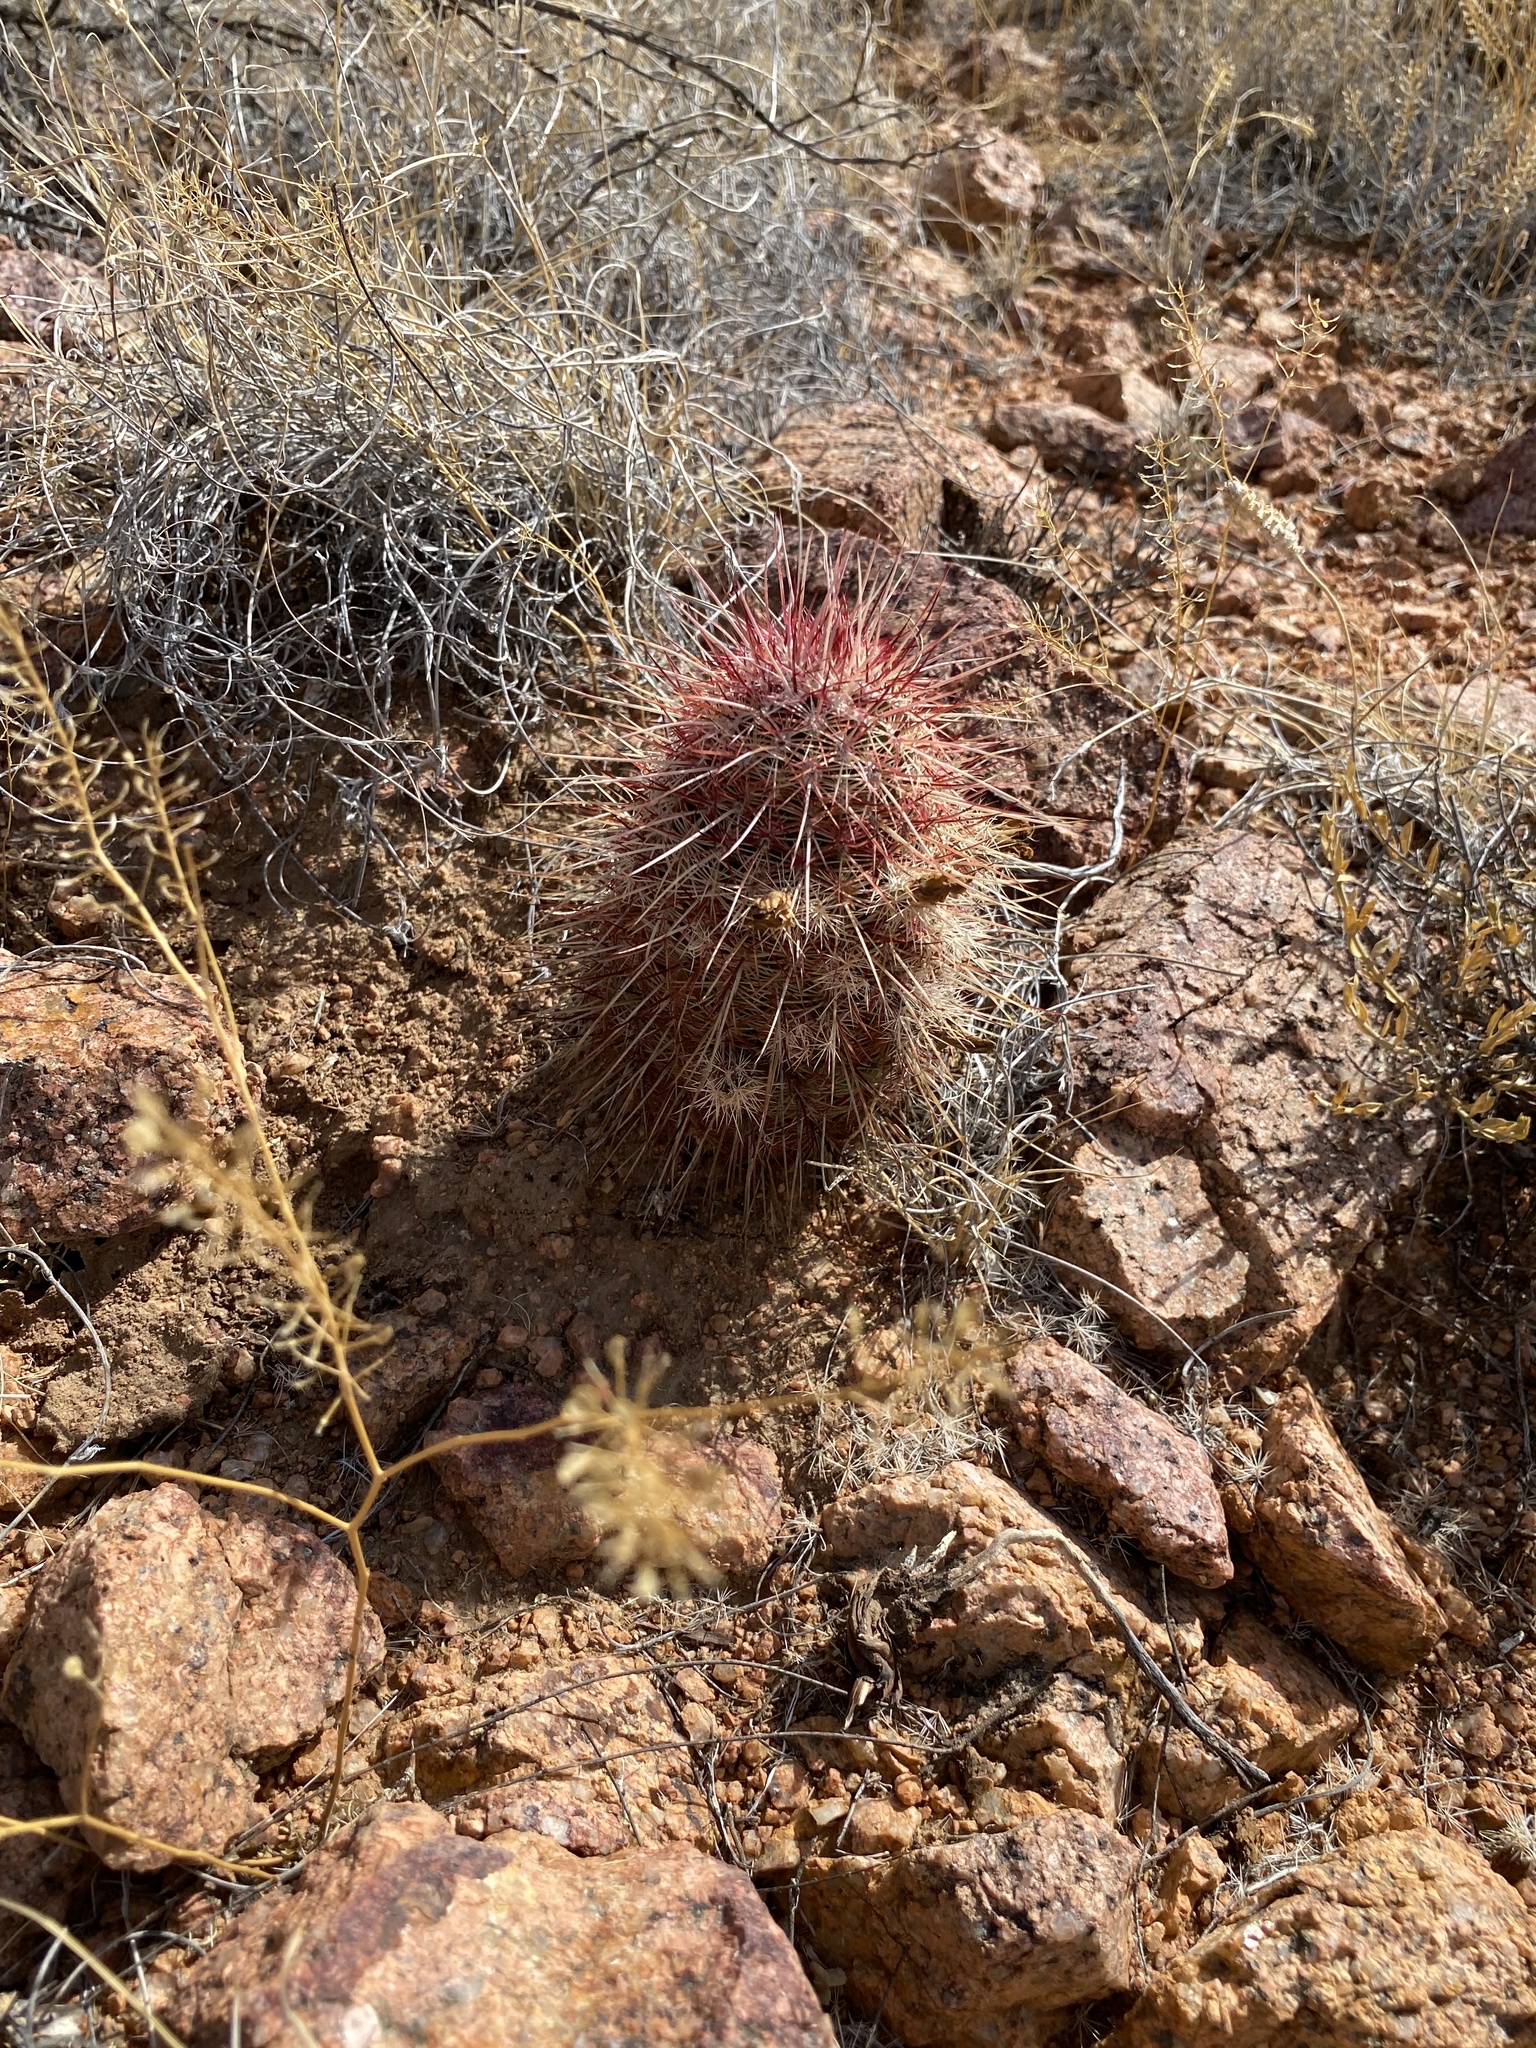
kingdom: Plantae
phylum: Tracheophyta
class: Magnoliopsida
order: Caryophyllales
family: Cactaceae
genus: Echinocereus
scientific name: Echinocereus viridiflorus
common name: Nylon hedgehog cactus
